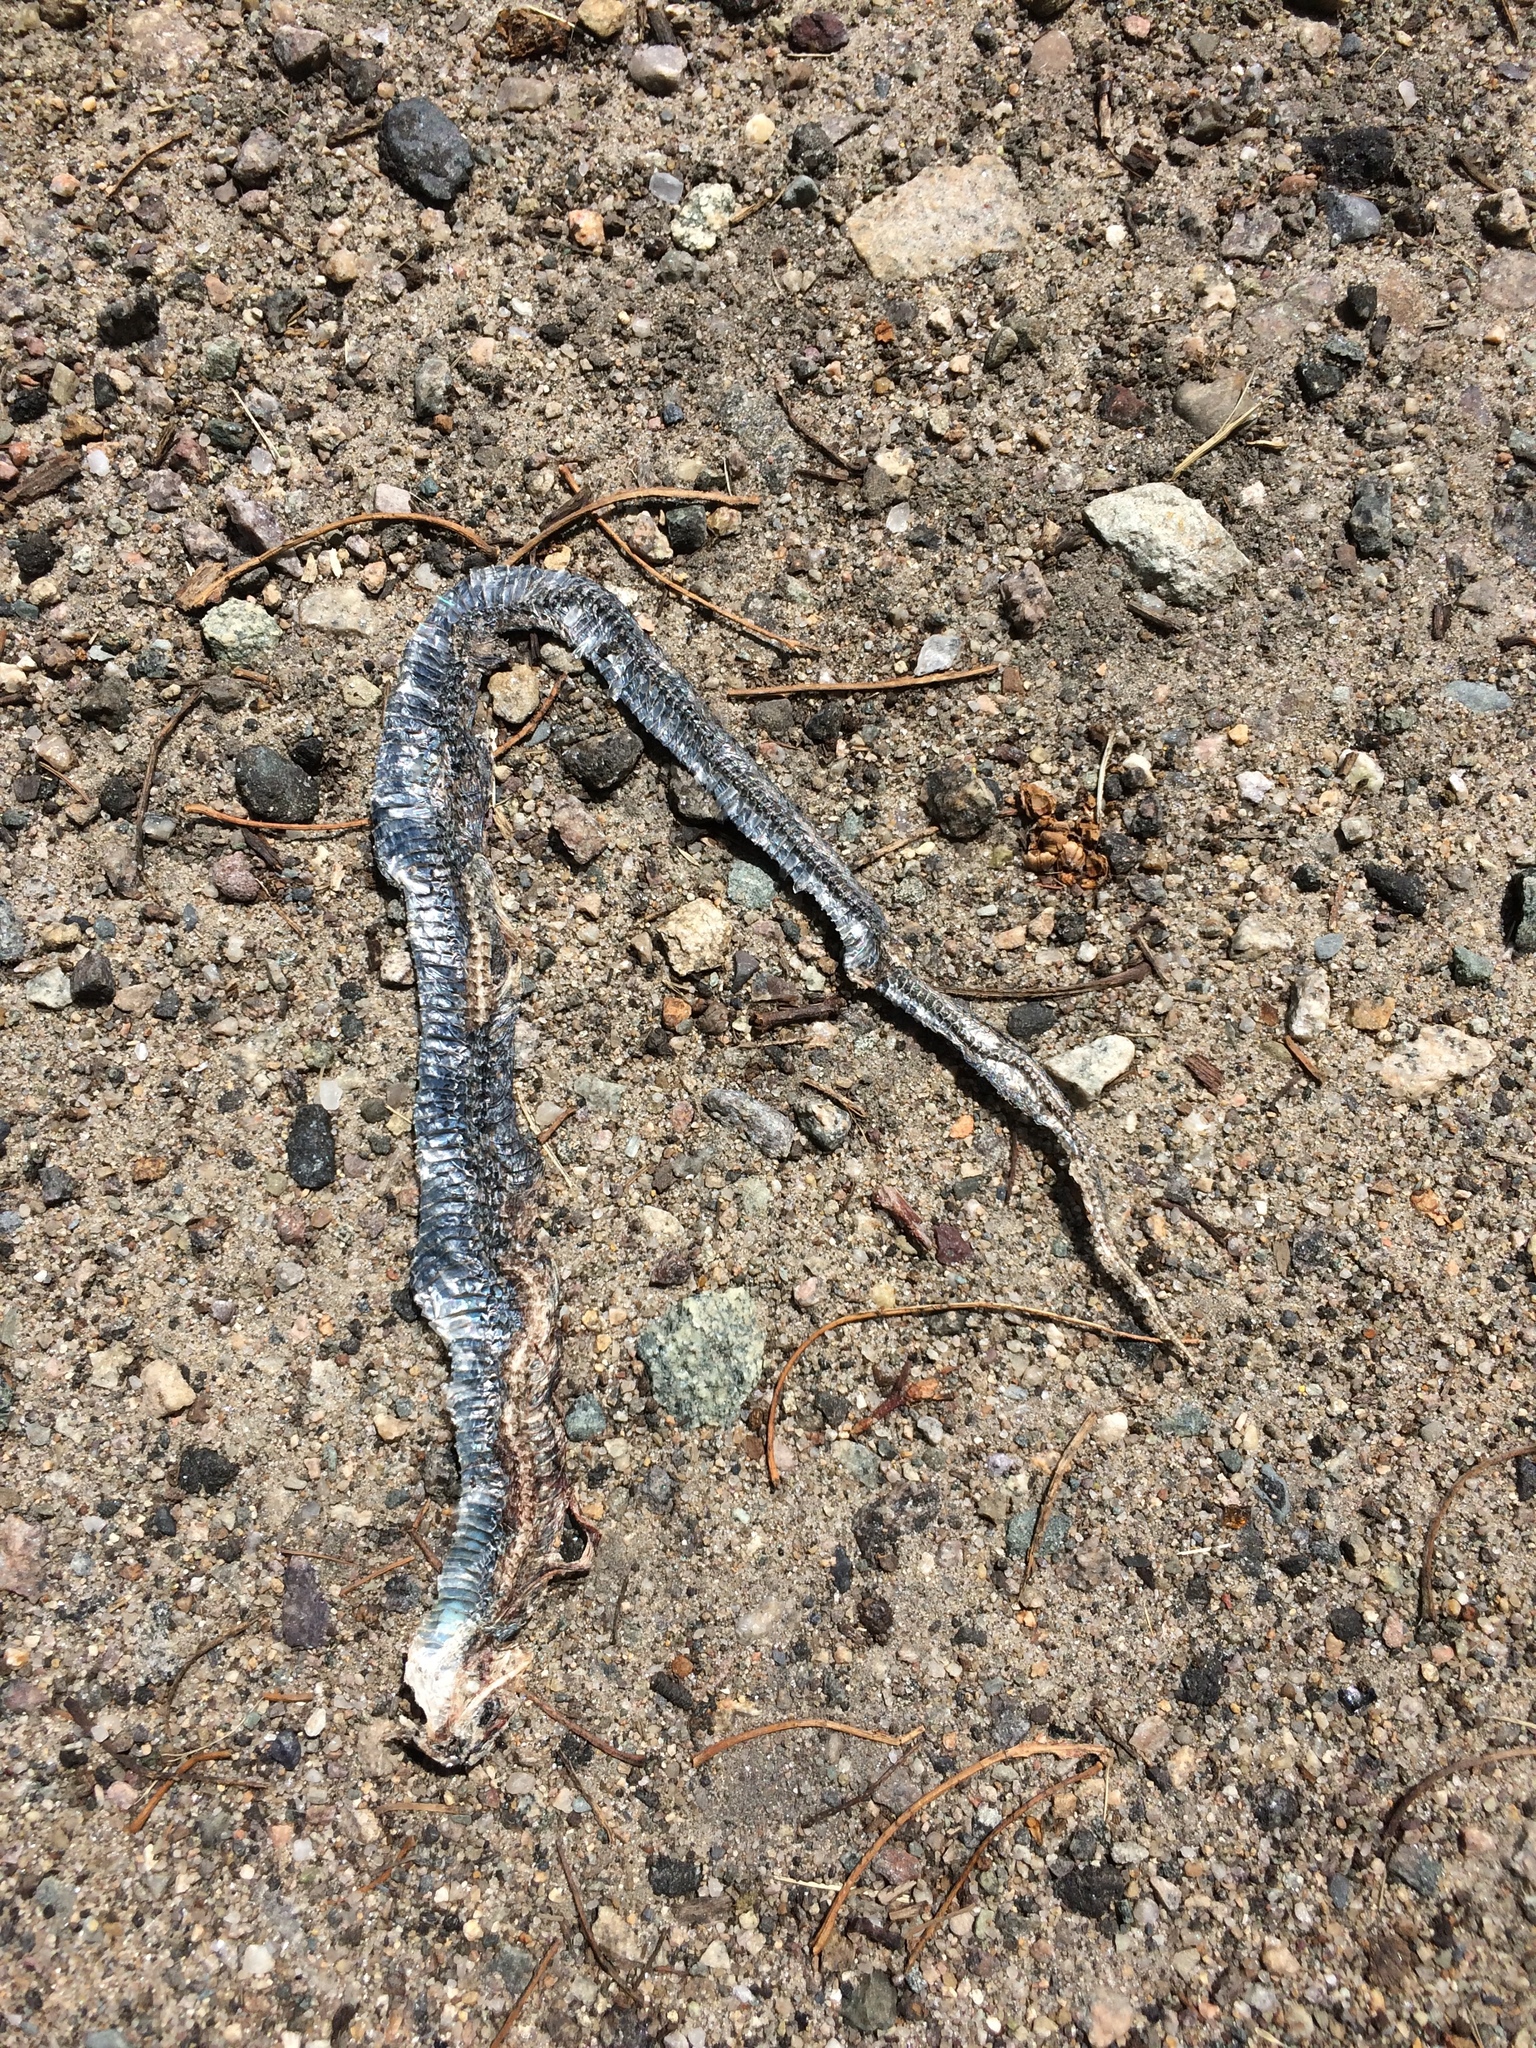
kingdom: Animalia
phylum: Chordata
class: Squamata
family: Colubridae
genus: Thamnophis
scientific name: Thamnophis sirtalis
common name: Common garter snake
